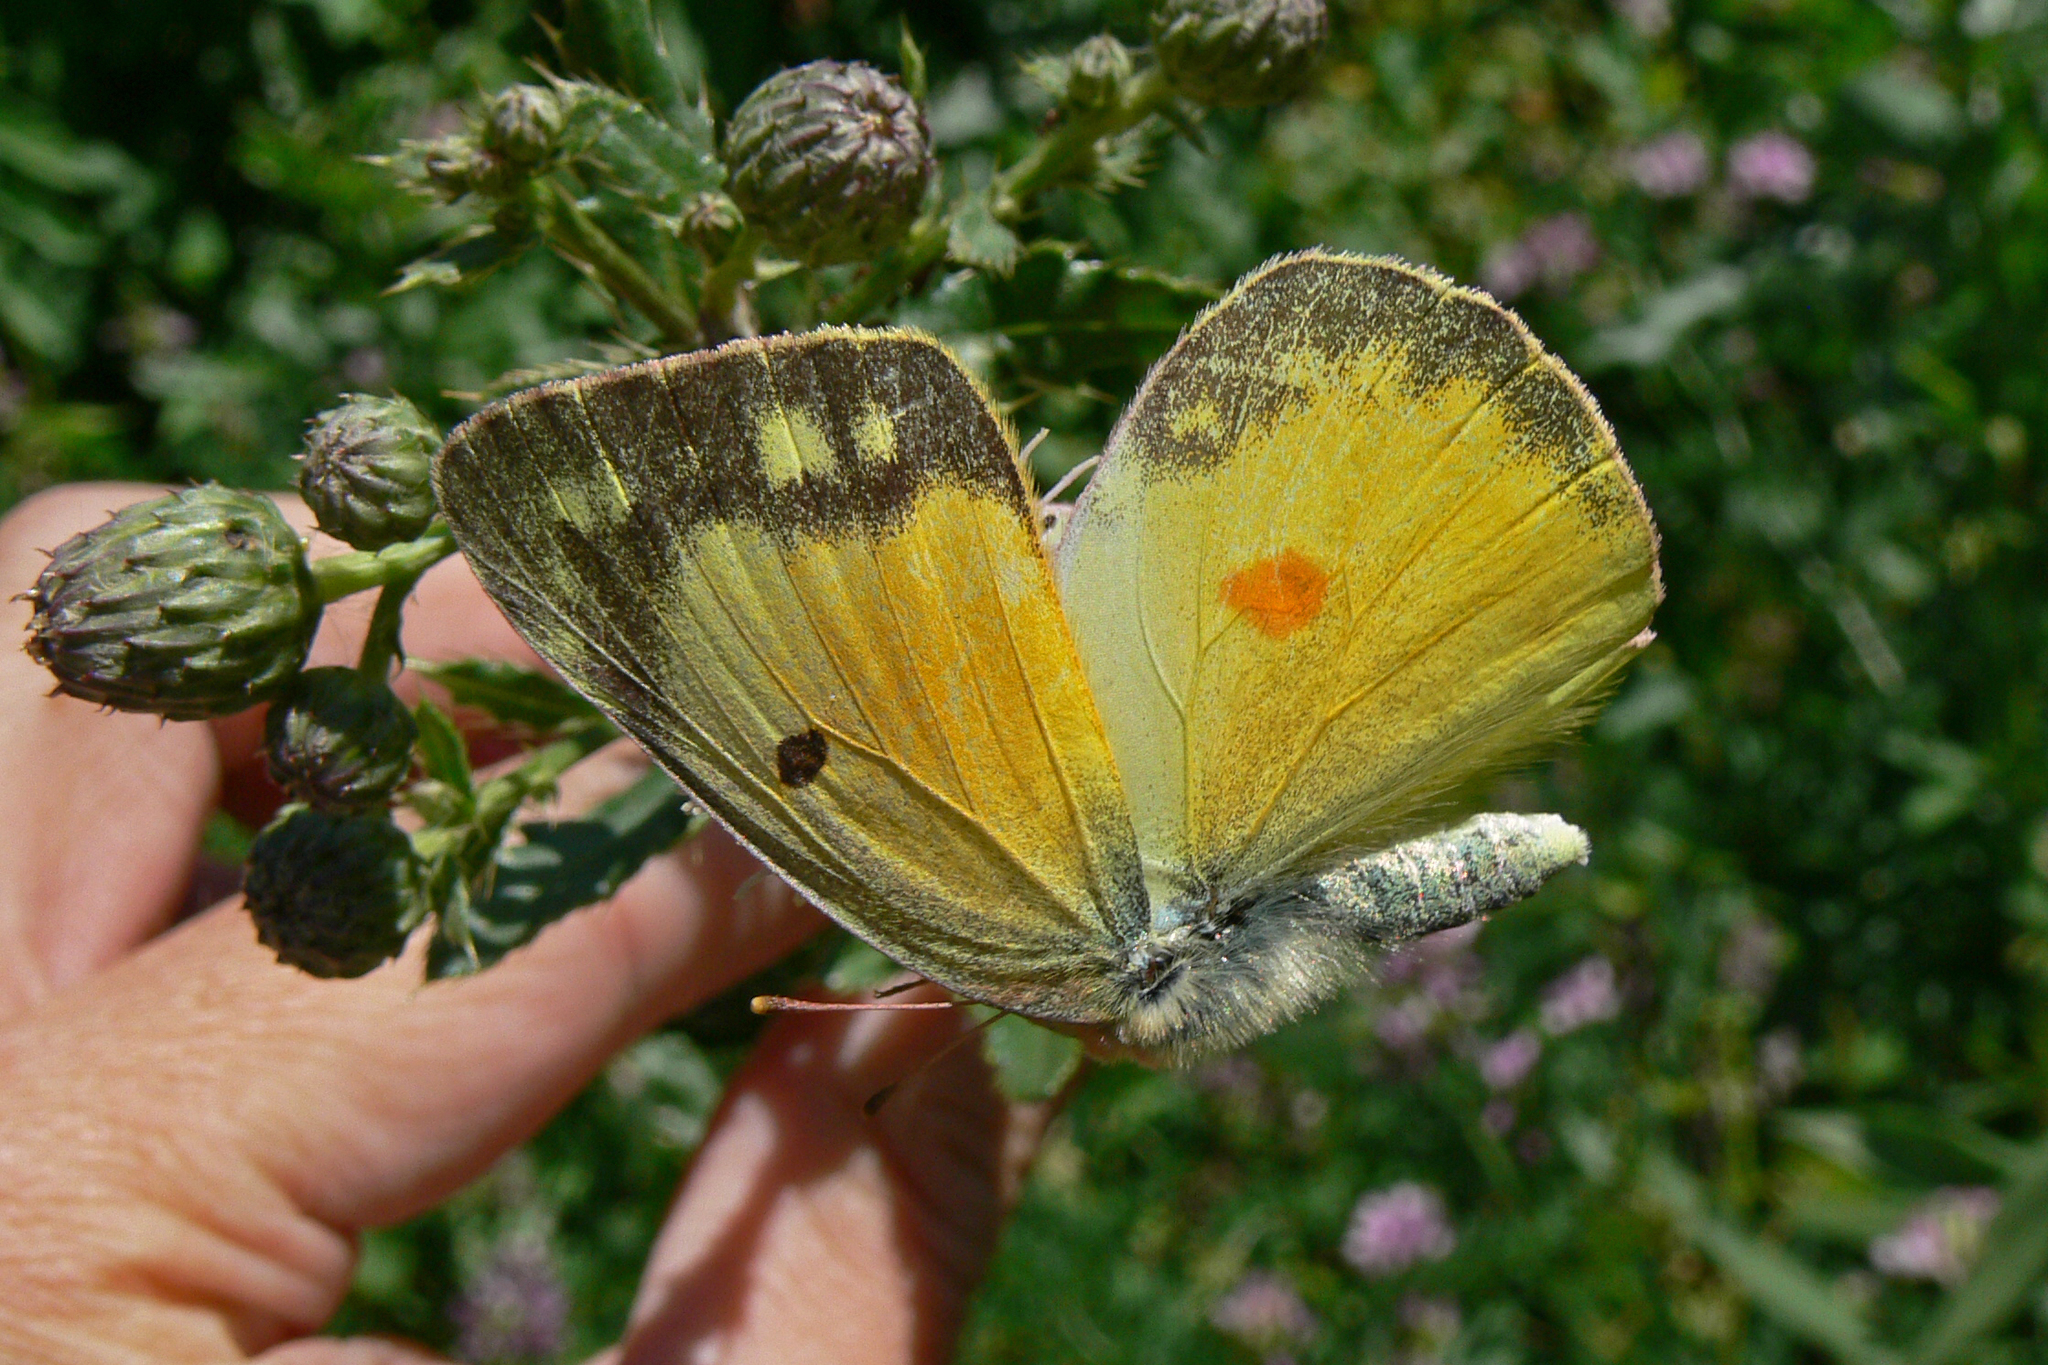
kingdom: Animalia
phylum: Arthropoda
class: Insecta
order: Lepidoptera
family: Pieridae
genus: Colias
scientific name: Colias eurytheme
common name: Alfalfa butterfly
